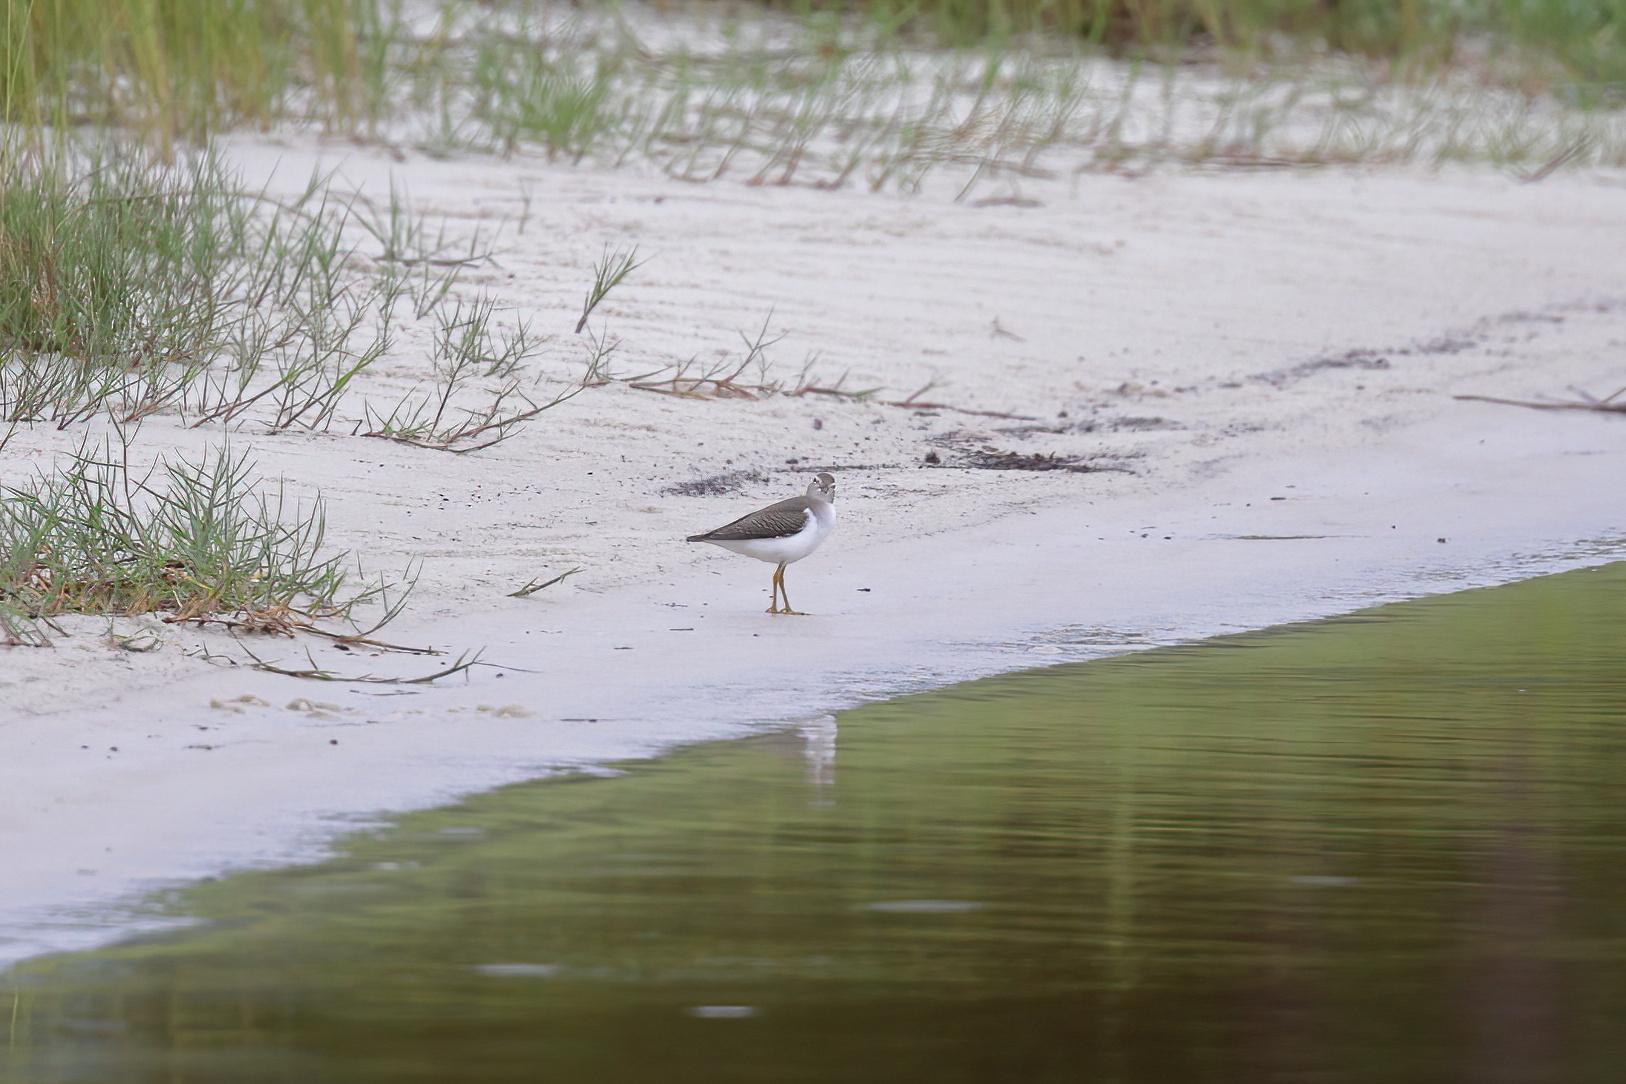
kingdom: Animalia
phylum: Chordata
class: Aves
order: Charadriiformes
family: Scolopacidae
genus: Actitis
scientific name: Actitis macularius
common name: Spotted sandpiper
